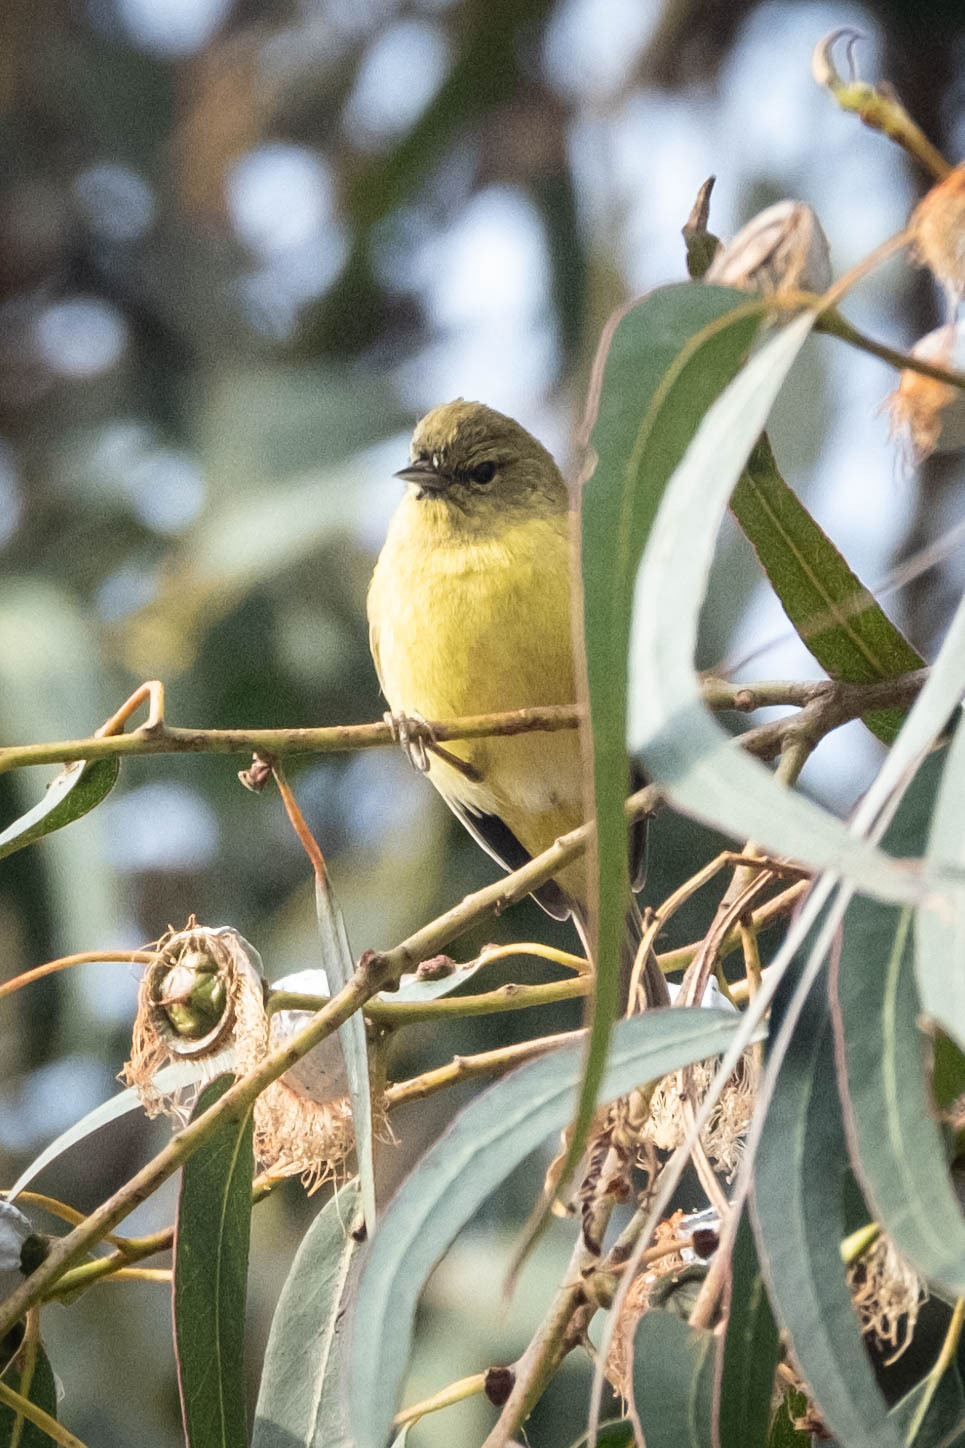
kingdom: Animalia
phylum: Chordata
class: Aves
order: Passeriformes
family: Parulidae
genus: Leiothlypis
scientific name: Leiothlypis celata
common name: Orange-crowned warbler
